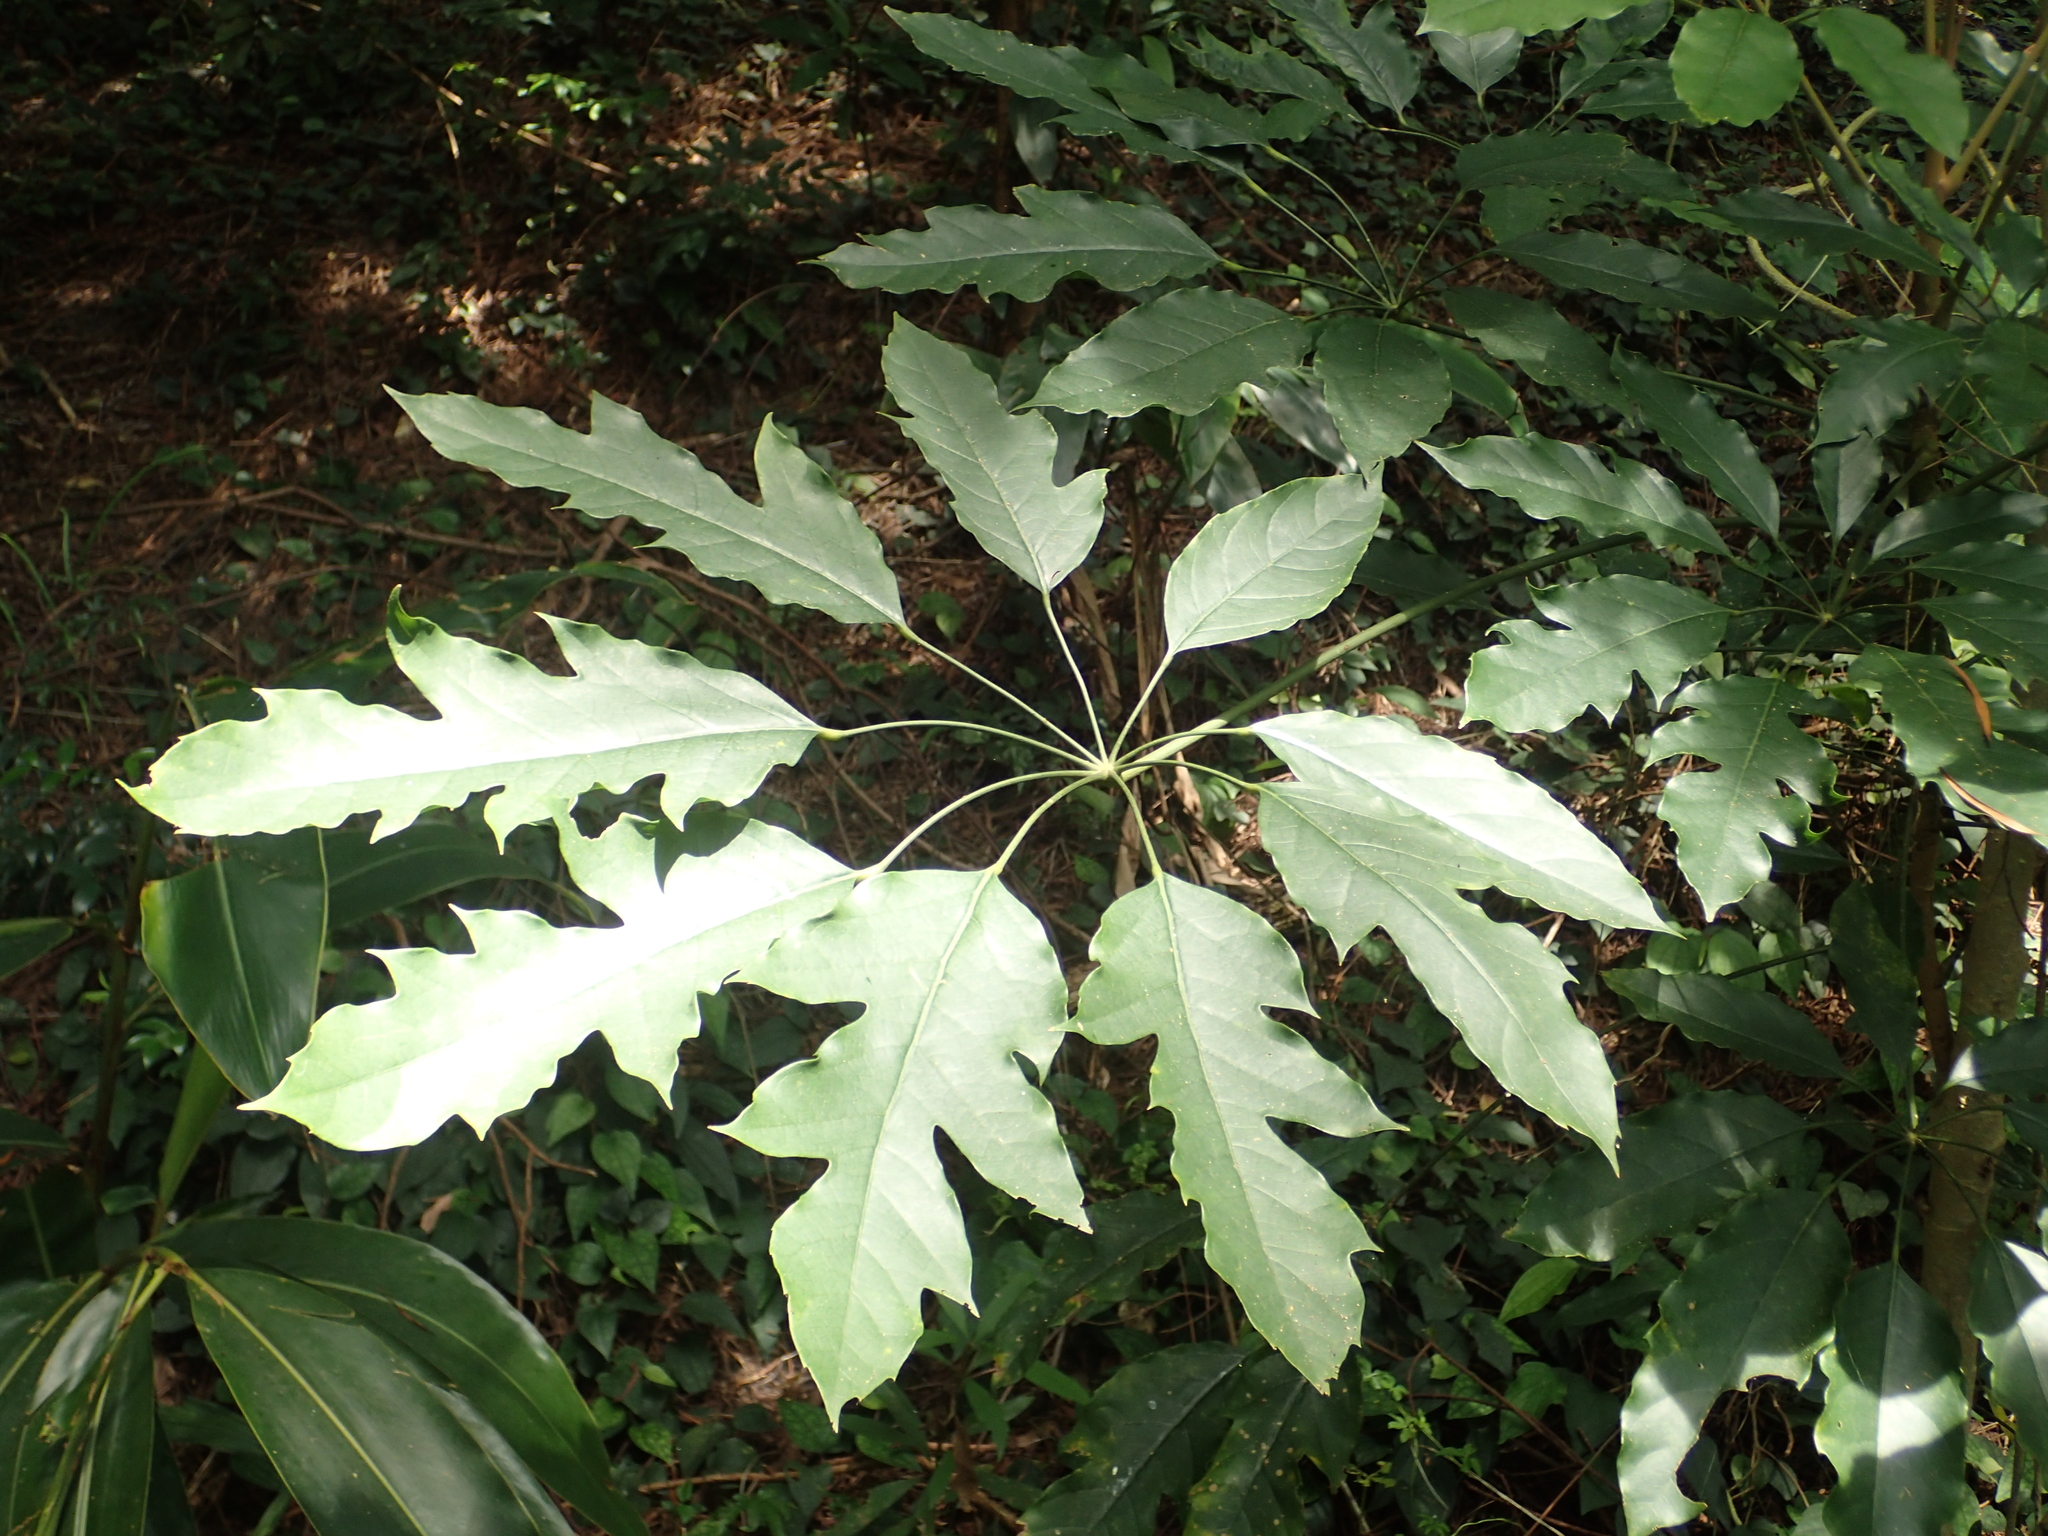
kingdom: Plantae
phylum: Tracheophyta
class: Magnoliopsida
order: Apiales
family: Araliaceae
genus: Heptapleurum
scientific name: Heptapleurum heptaphyllum
